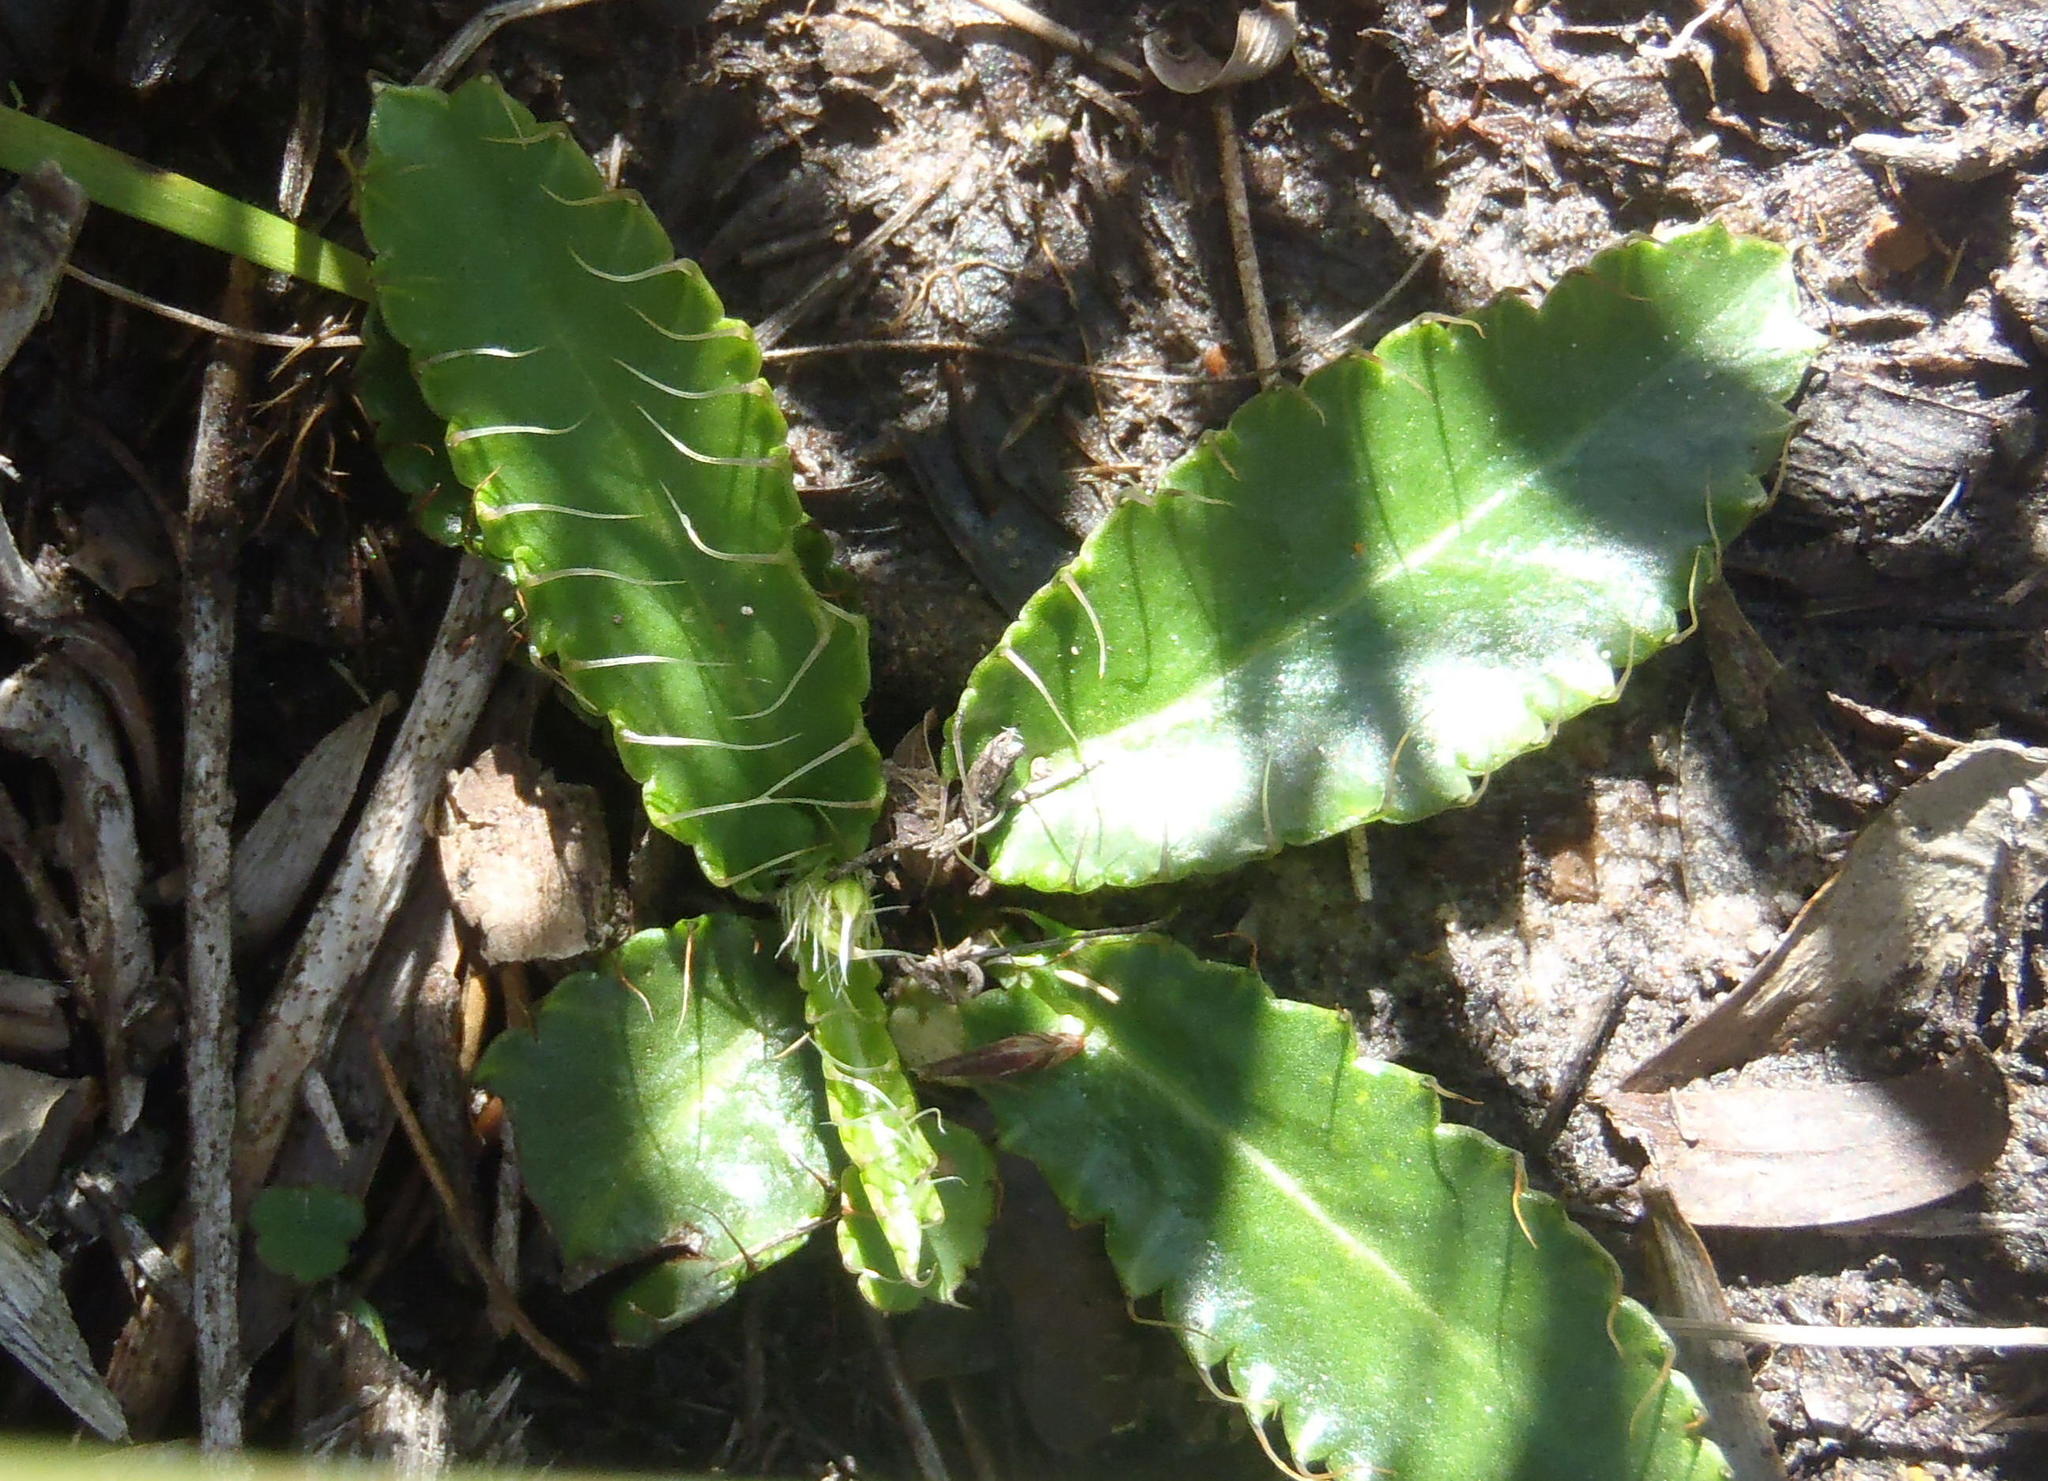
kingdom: Plantae
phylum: Tracheophyta
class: Magnoliopsida
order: Apiales
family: Apiaceae
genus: Alepidea
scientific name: Alepidea capensis
